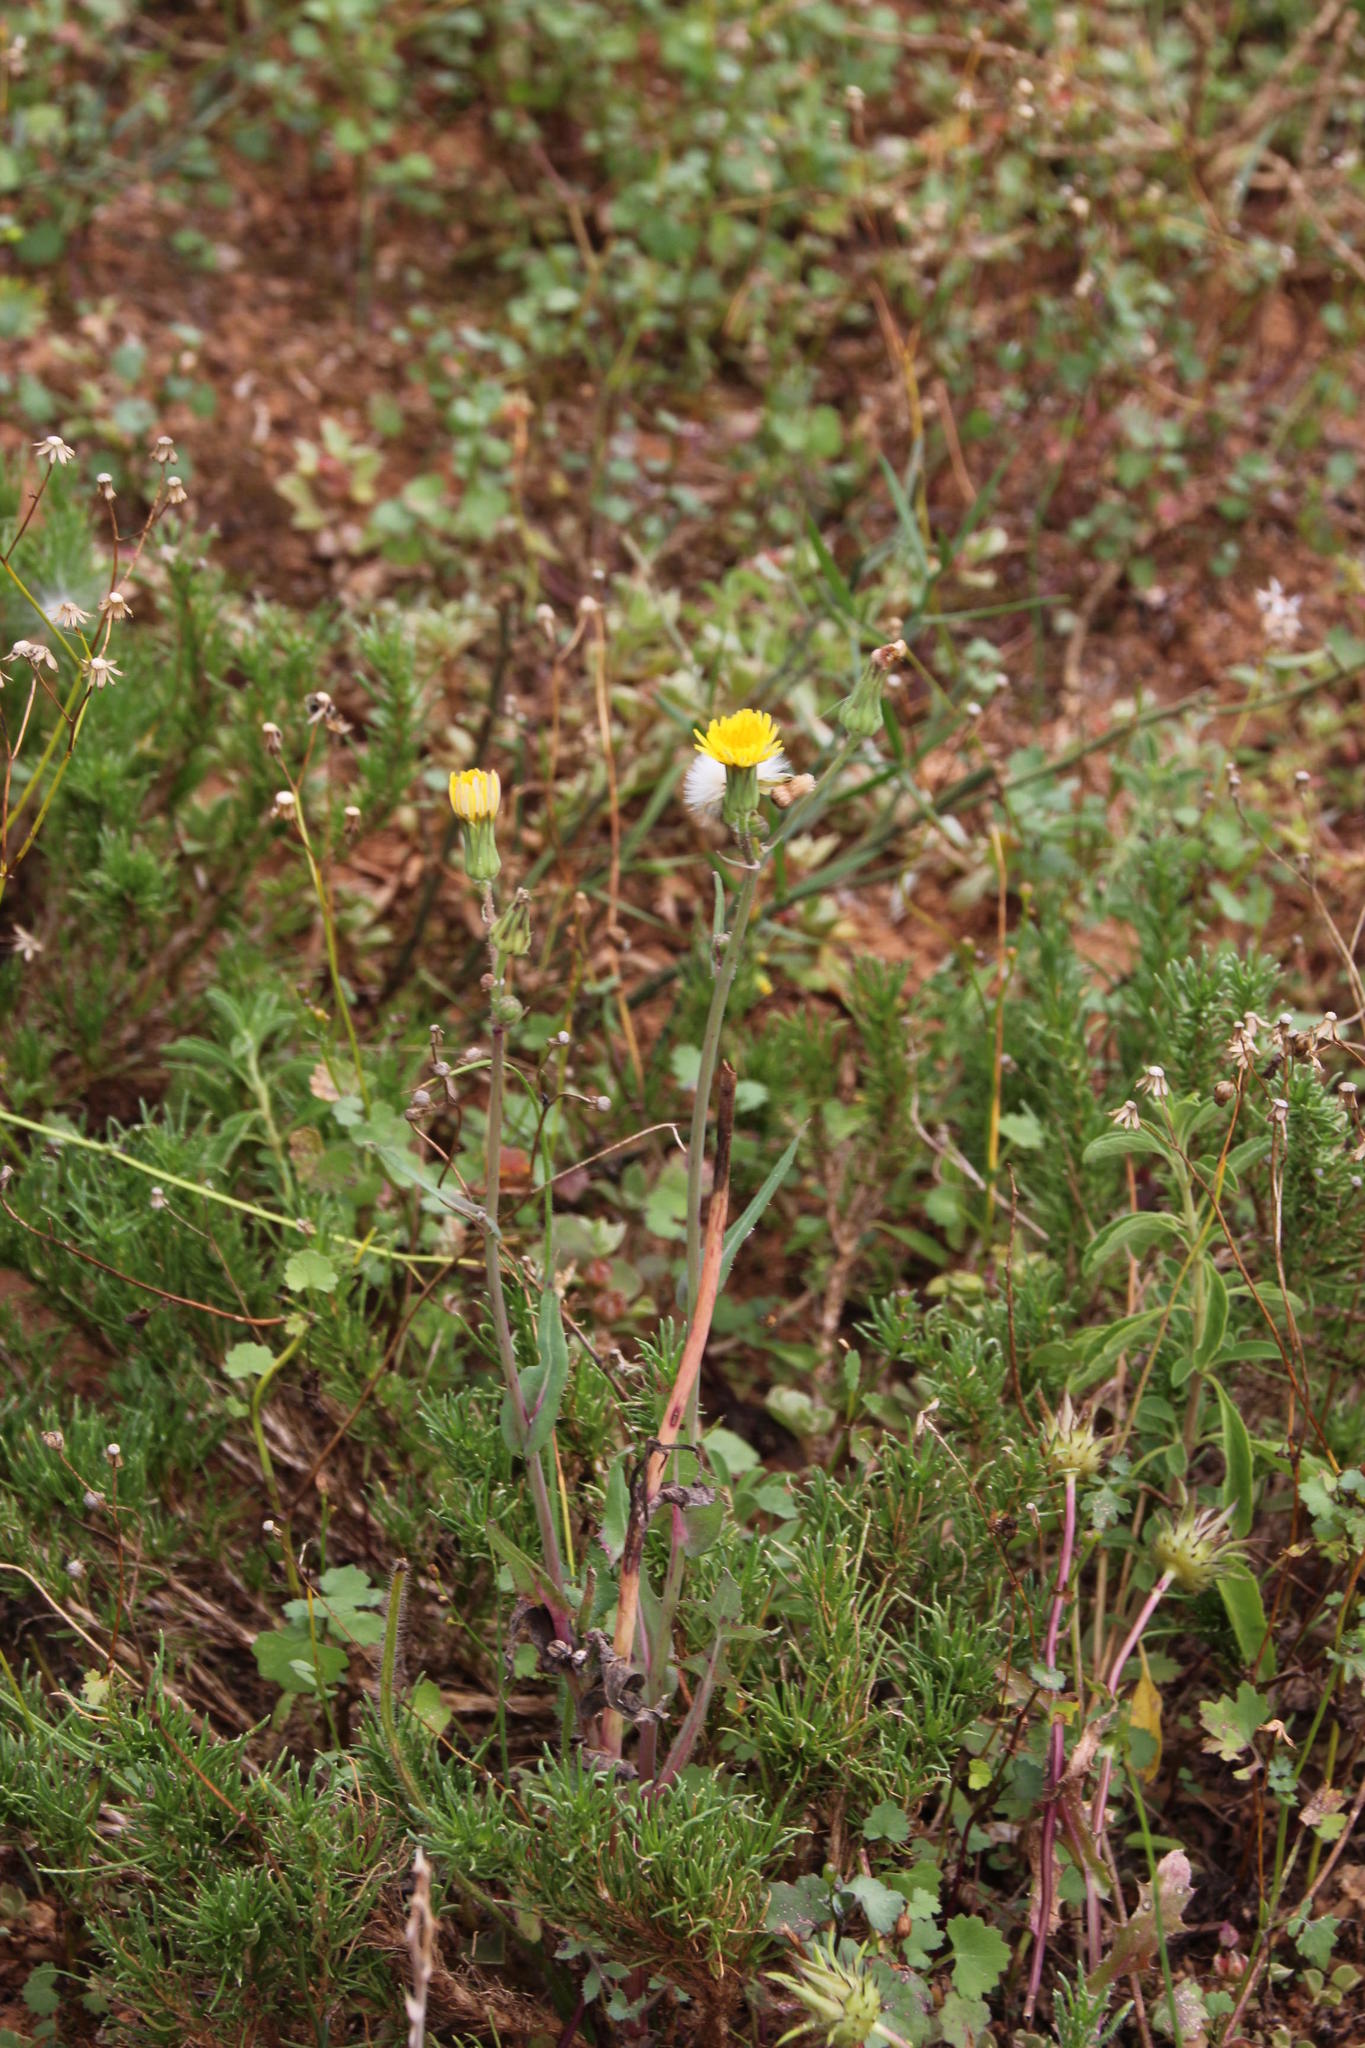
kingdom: Plantae
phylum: Tracheophyta
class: Magnoliopsida
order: Asterales
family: Asteraceae
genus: Sonchus
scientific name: Sonchus oleraceus
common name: Common sowthistle
